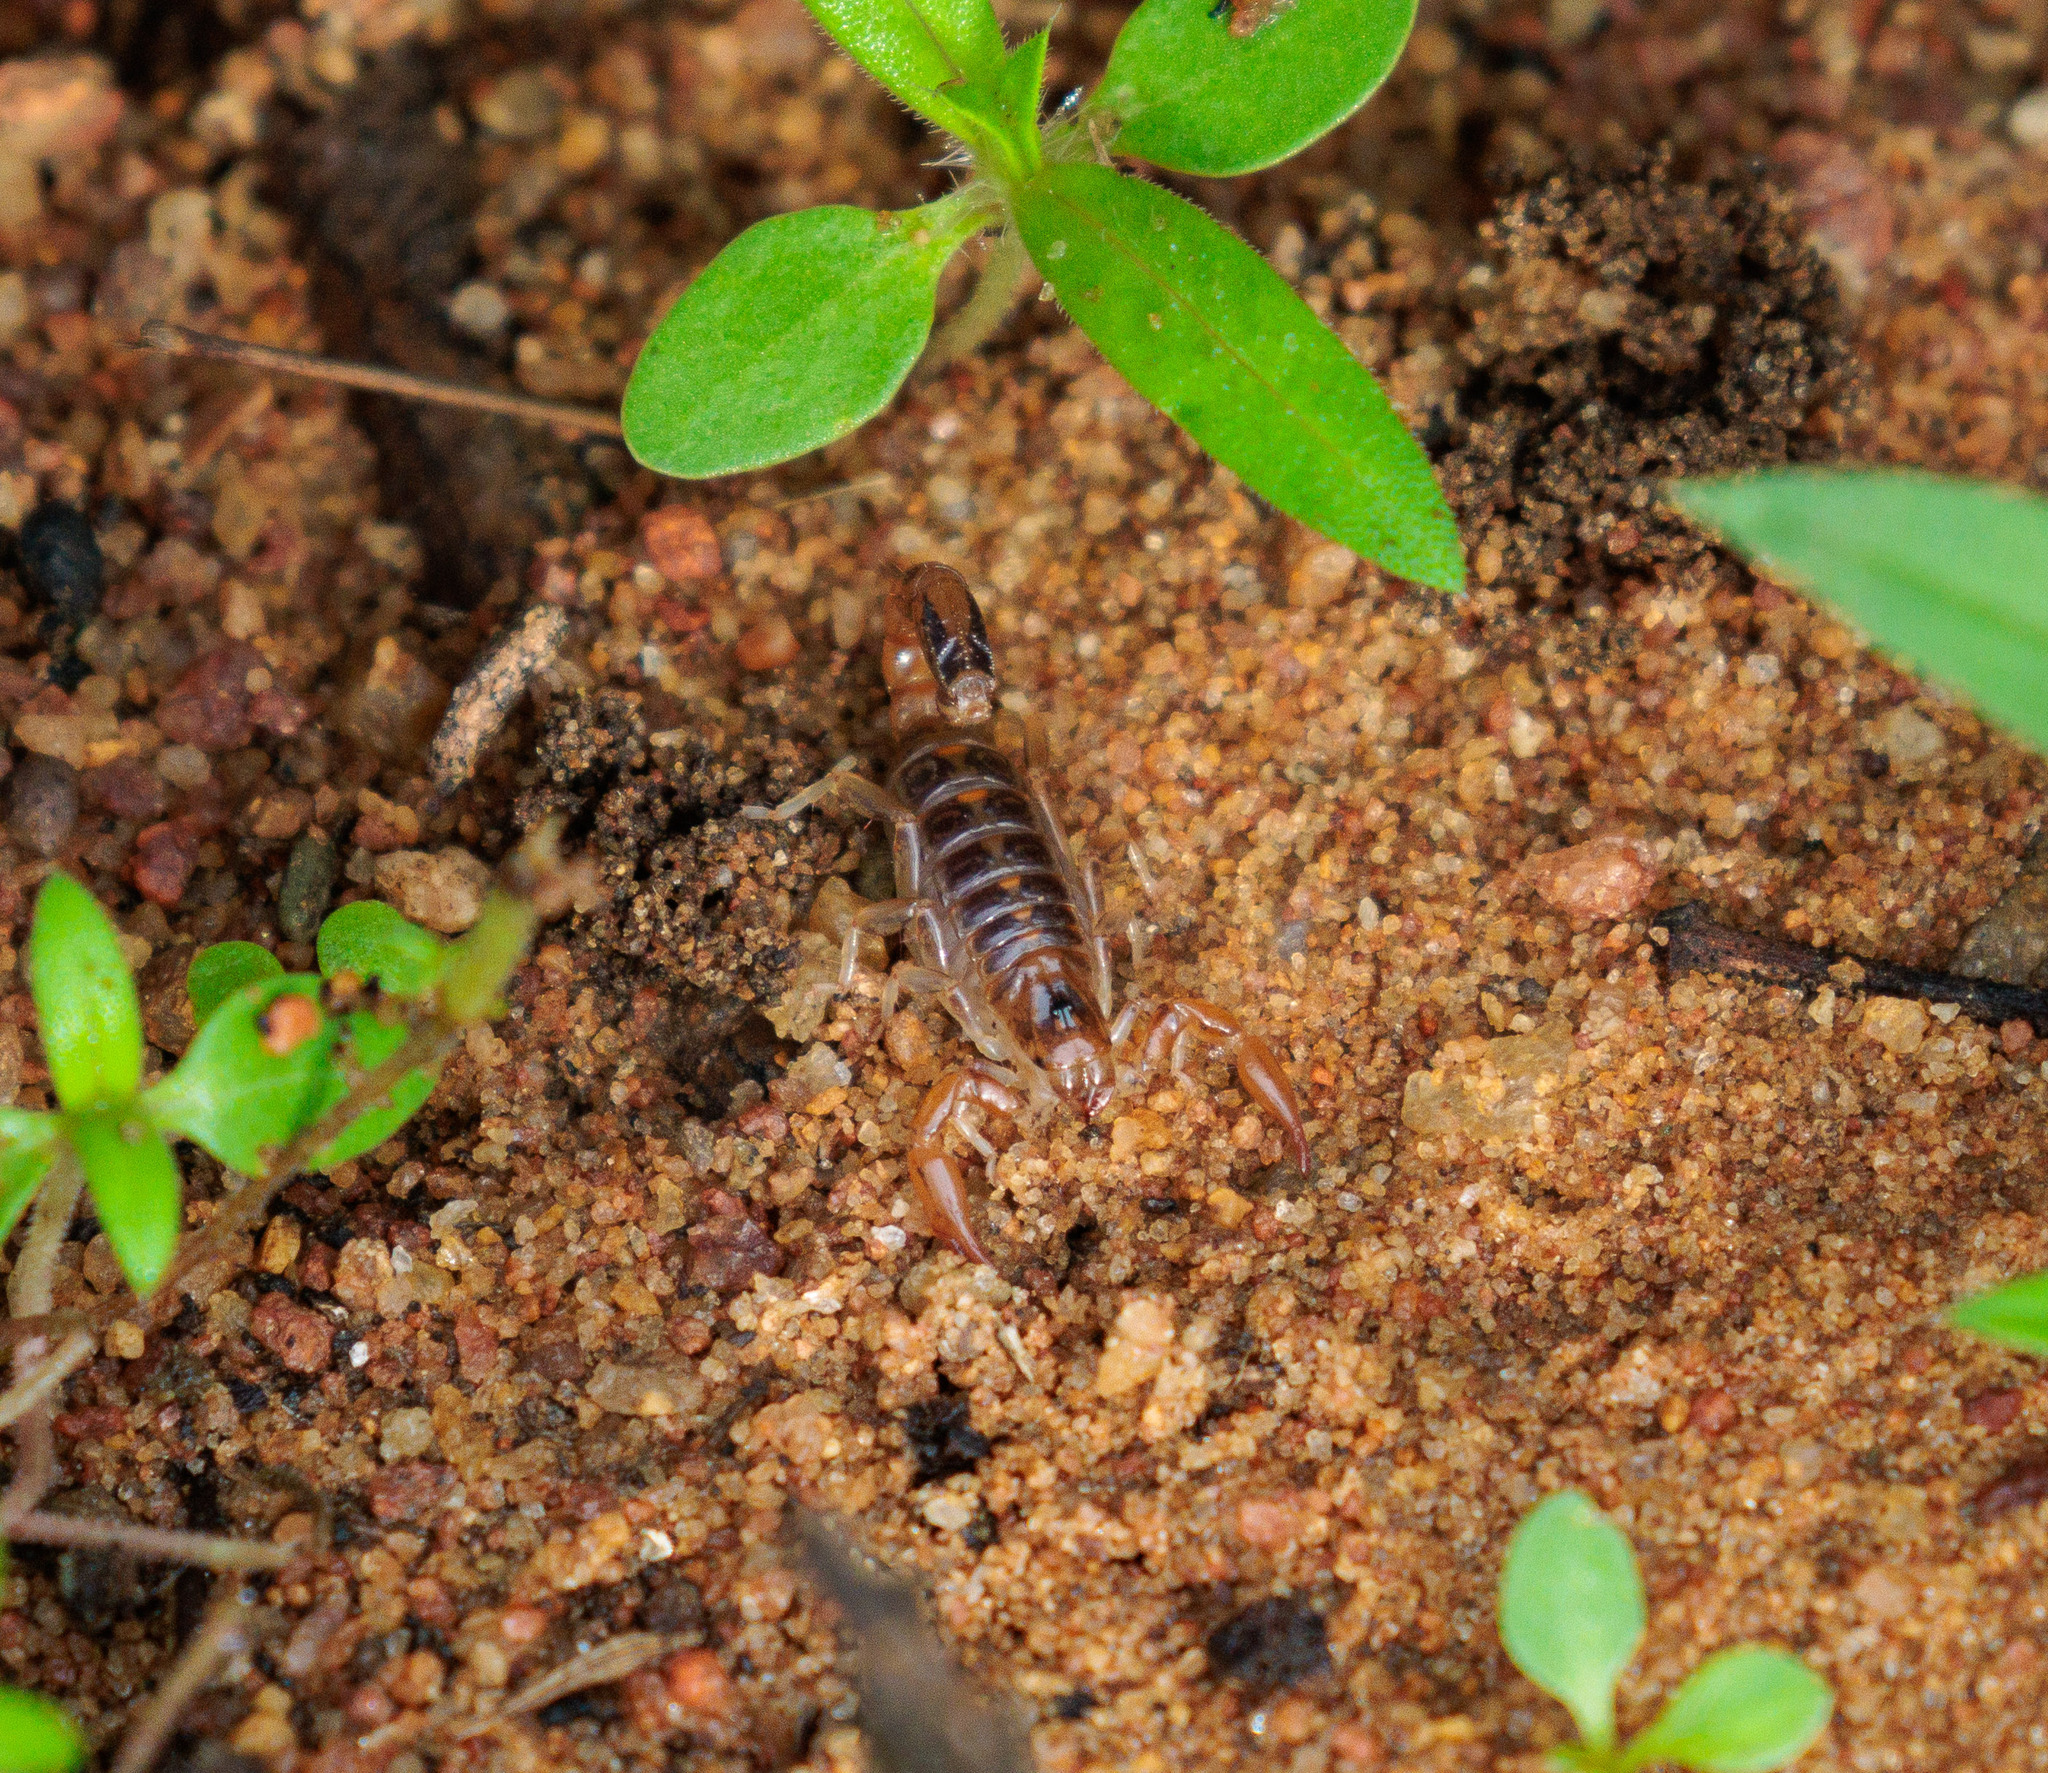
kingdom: Animalia
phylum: Arthropoda
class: Arachnida
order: Scorpiones
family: Bothriuridae
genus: Bothriurus
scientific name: Bothriurus asper
